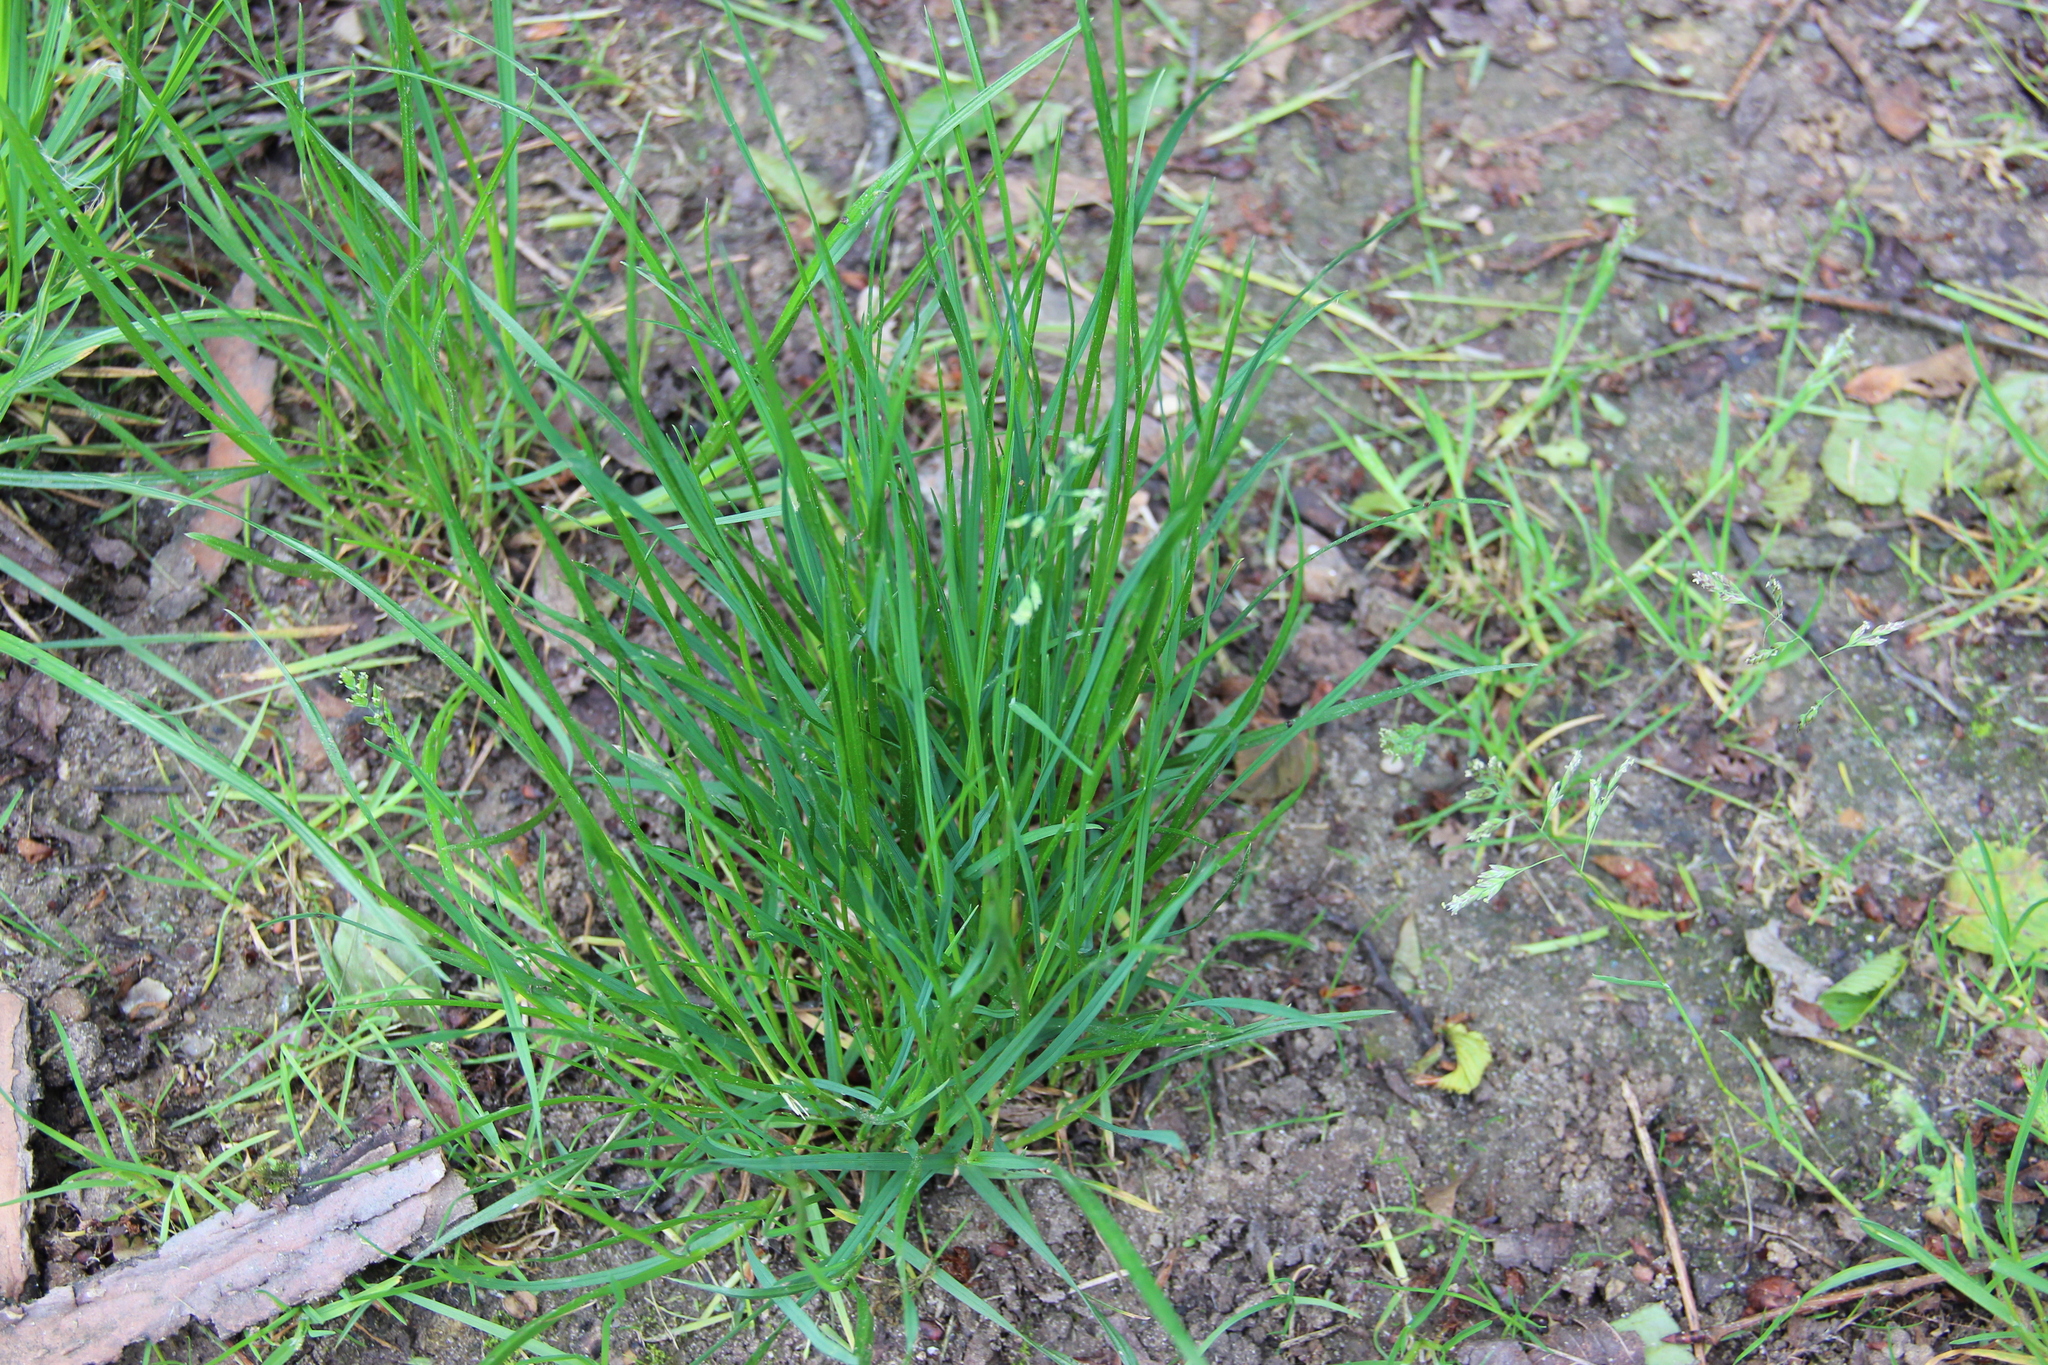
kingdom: Plantae
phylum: Tracheophyta
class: Liliopsida
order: Poales
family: Poaceae
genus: Poa
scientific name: Poa annua
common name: Annual bluegrass
